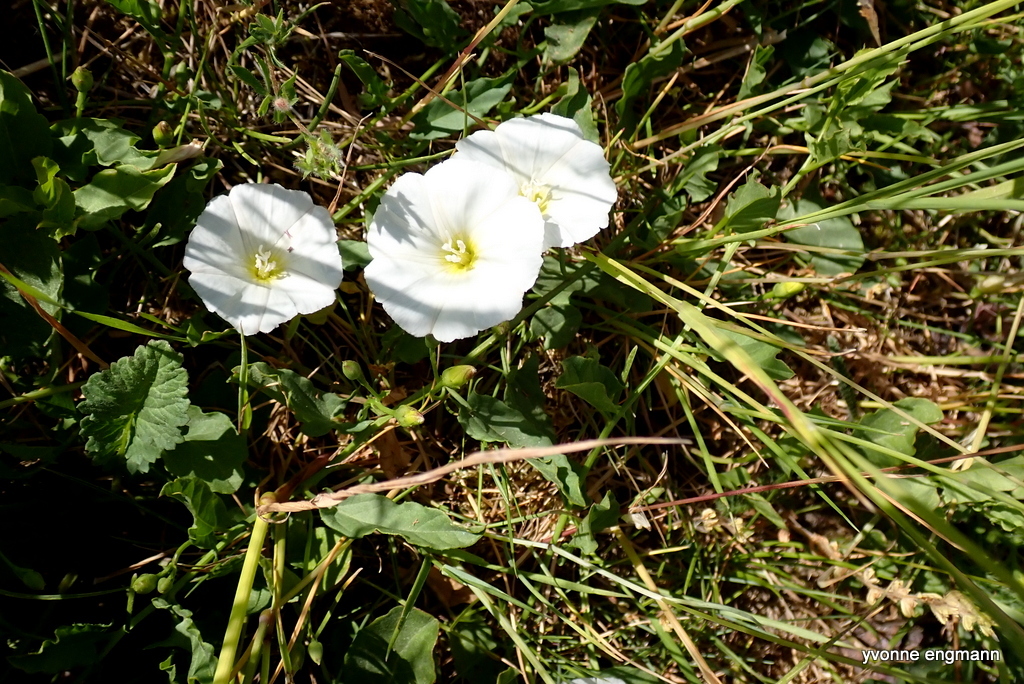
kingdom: Plantae
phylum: Tracheophyta
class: Magnoliopsida
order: Solanales
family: Convolvulaceae
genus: Convolvulus
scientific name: Convolvulus arvensis
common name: Field bindweed
